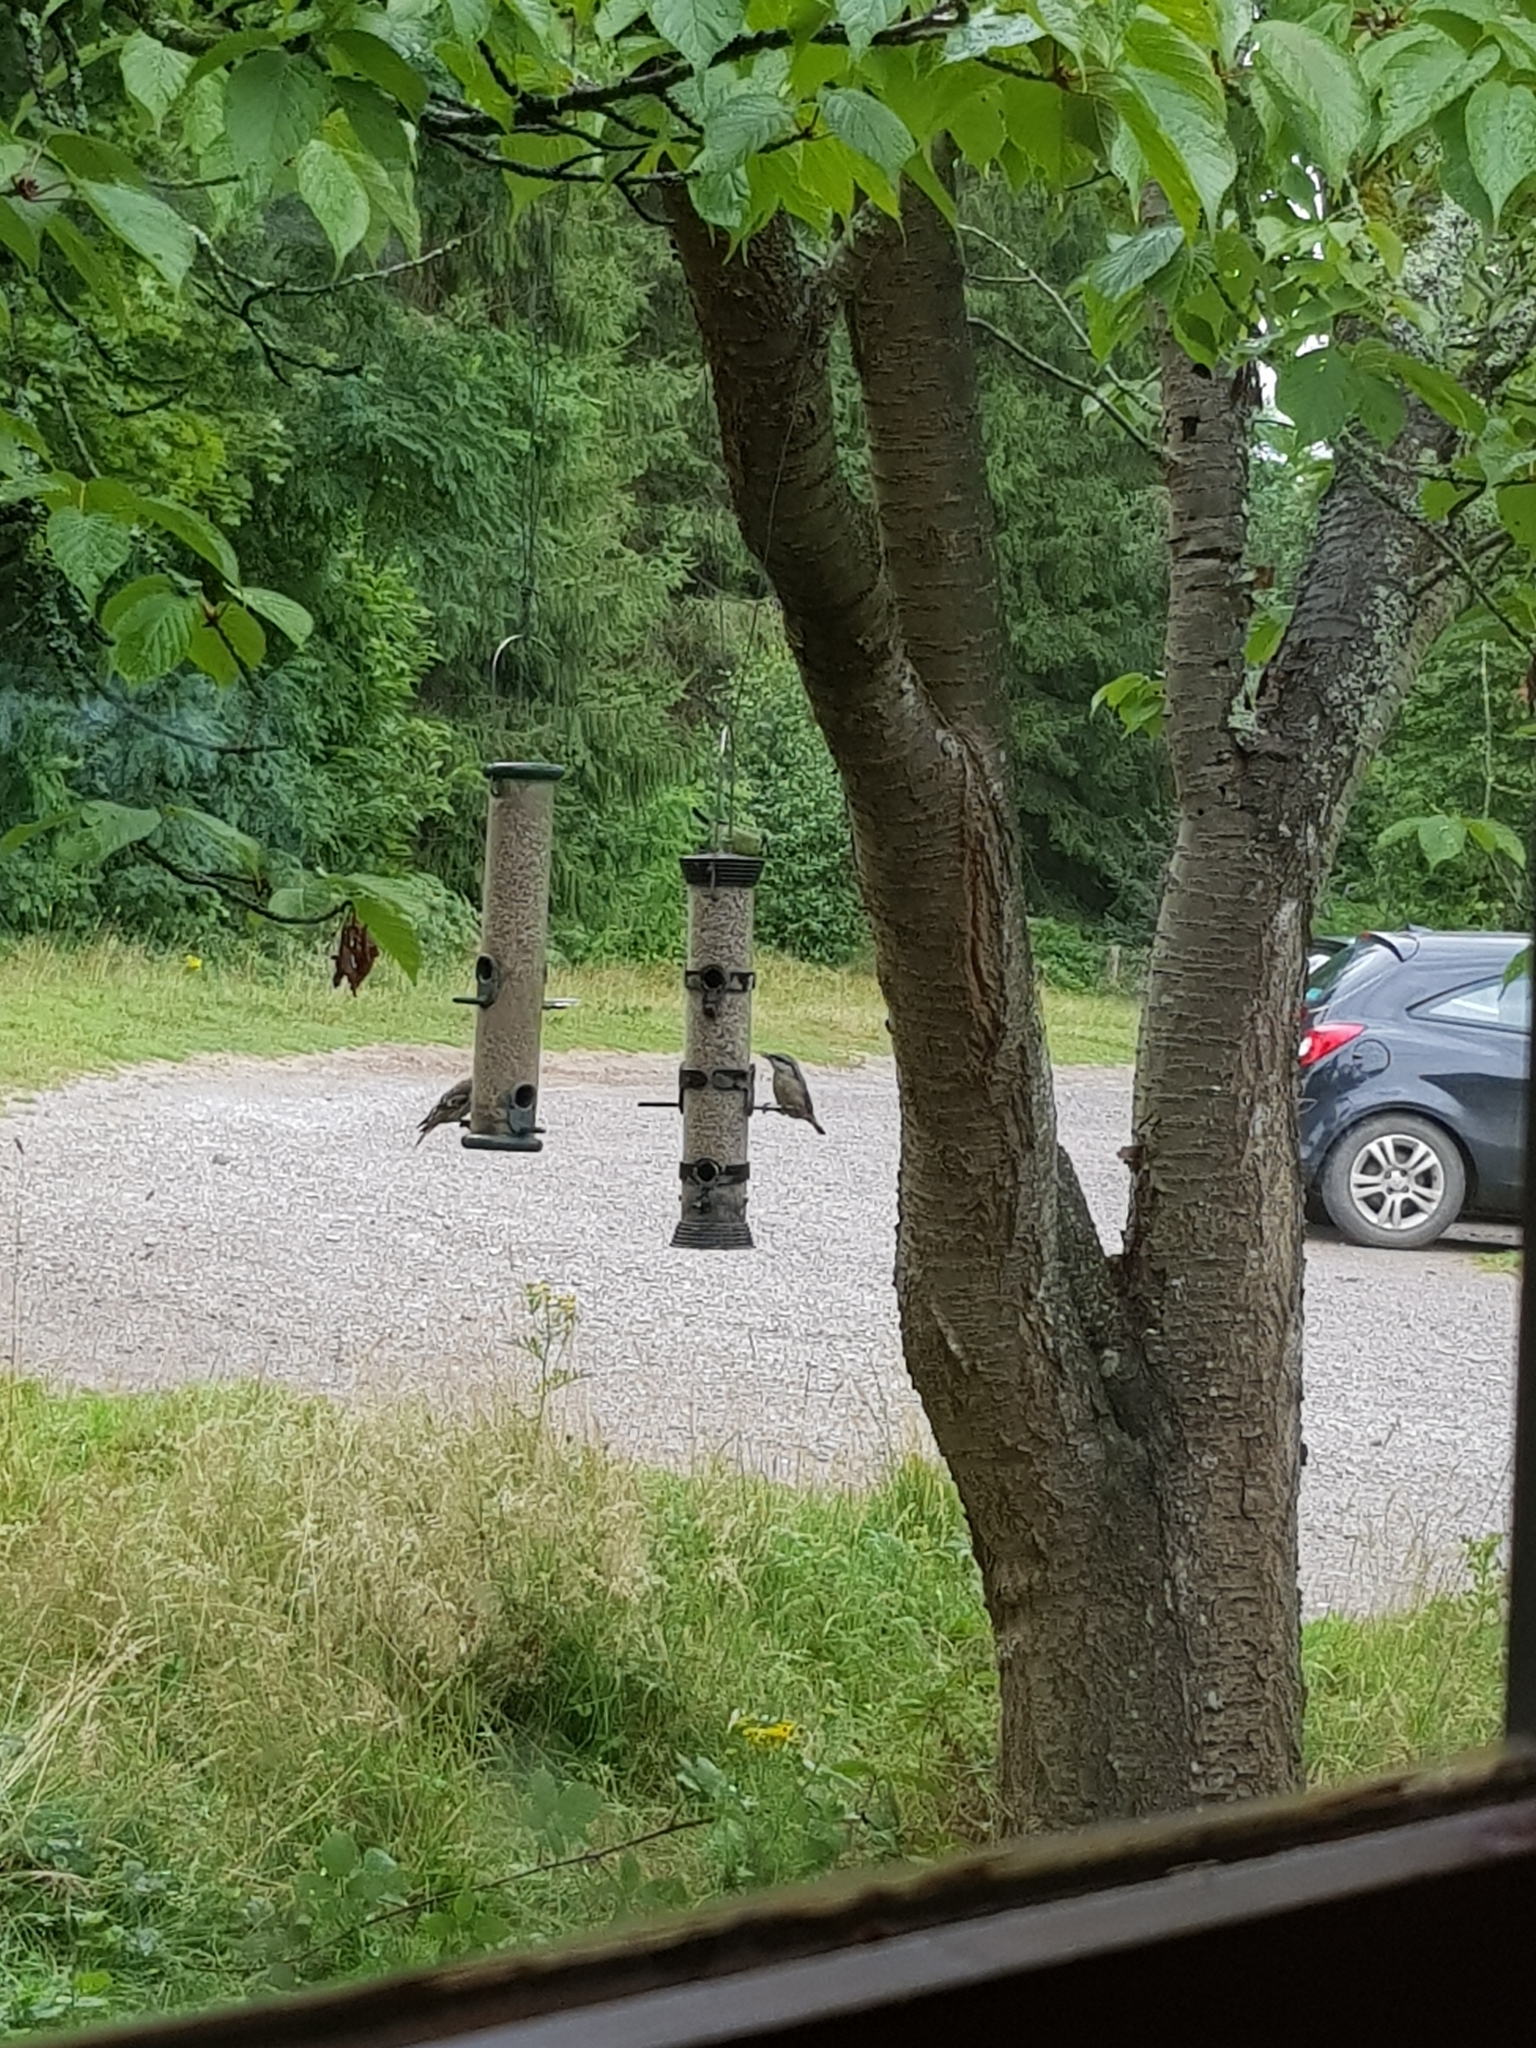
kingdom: Animalia
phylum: Chordata
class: Aves
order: Passeriformes
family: Sittidae
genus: Sitta
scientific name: Sitta europaea
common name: Eurasian nuthatch
